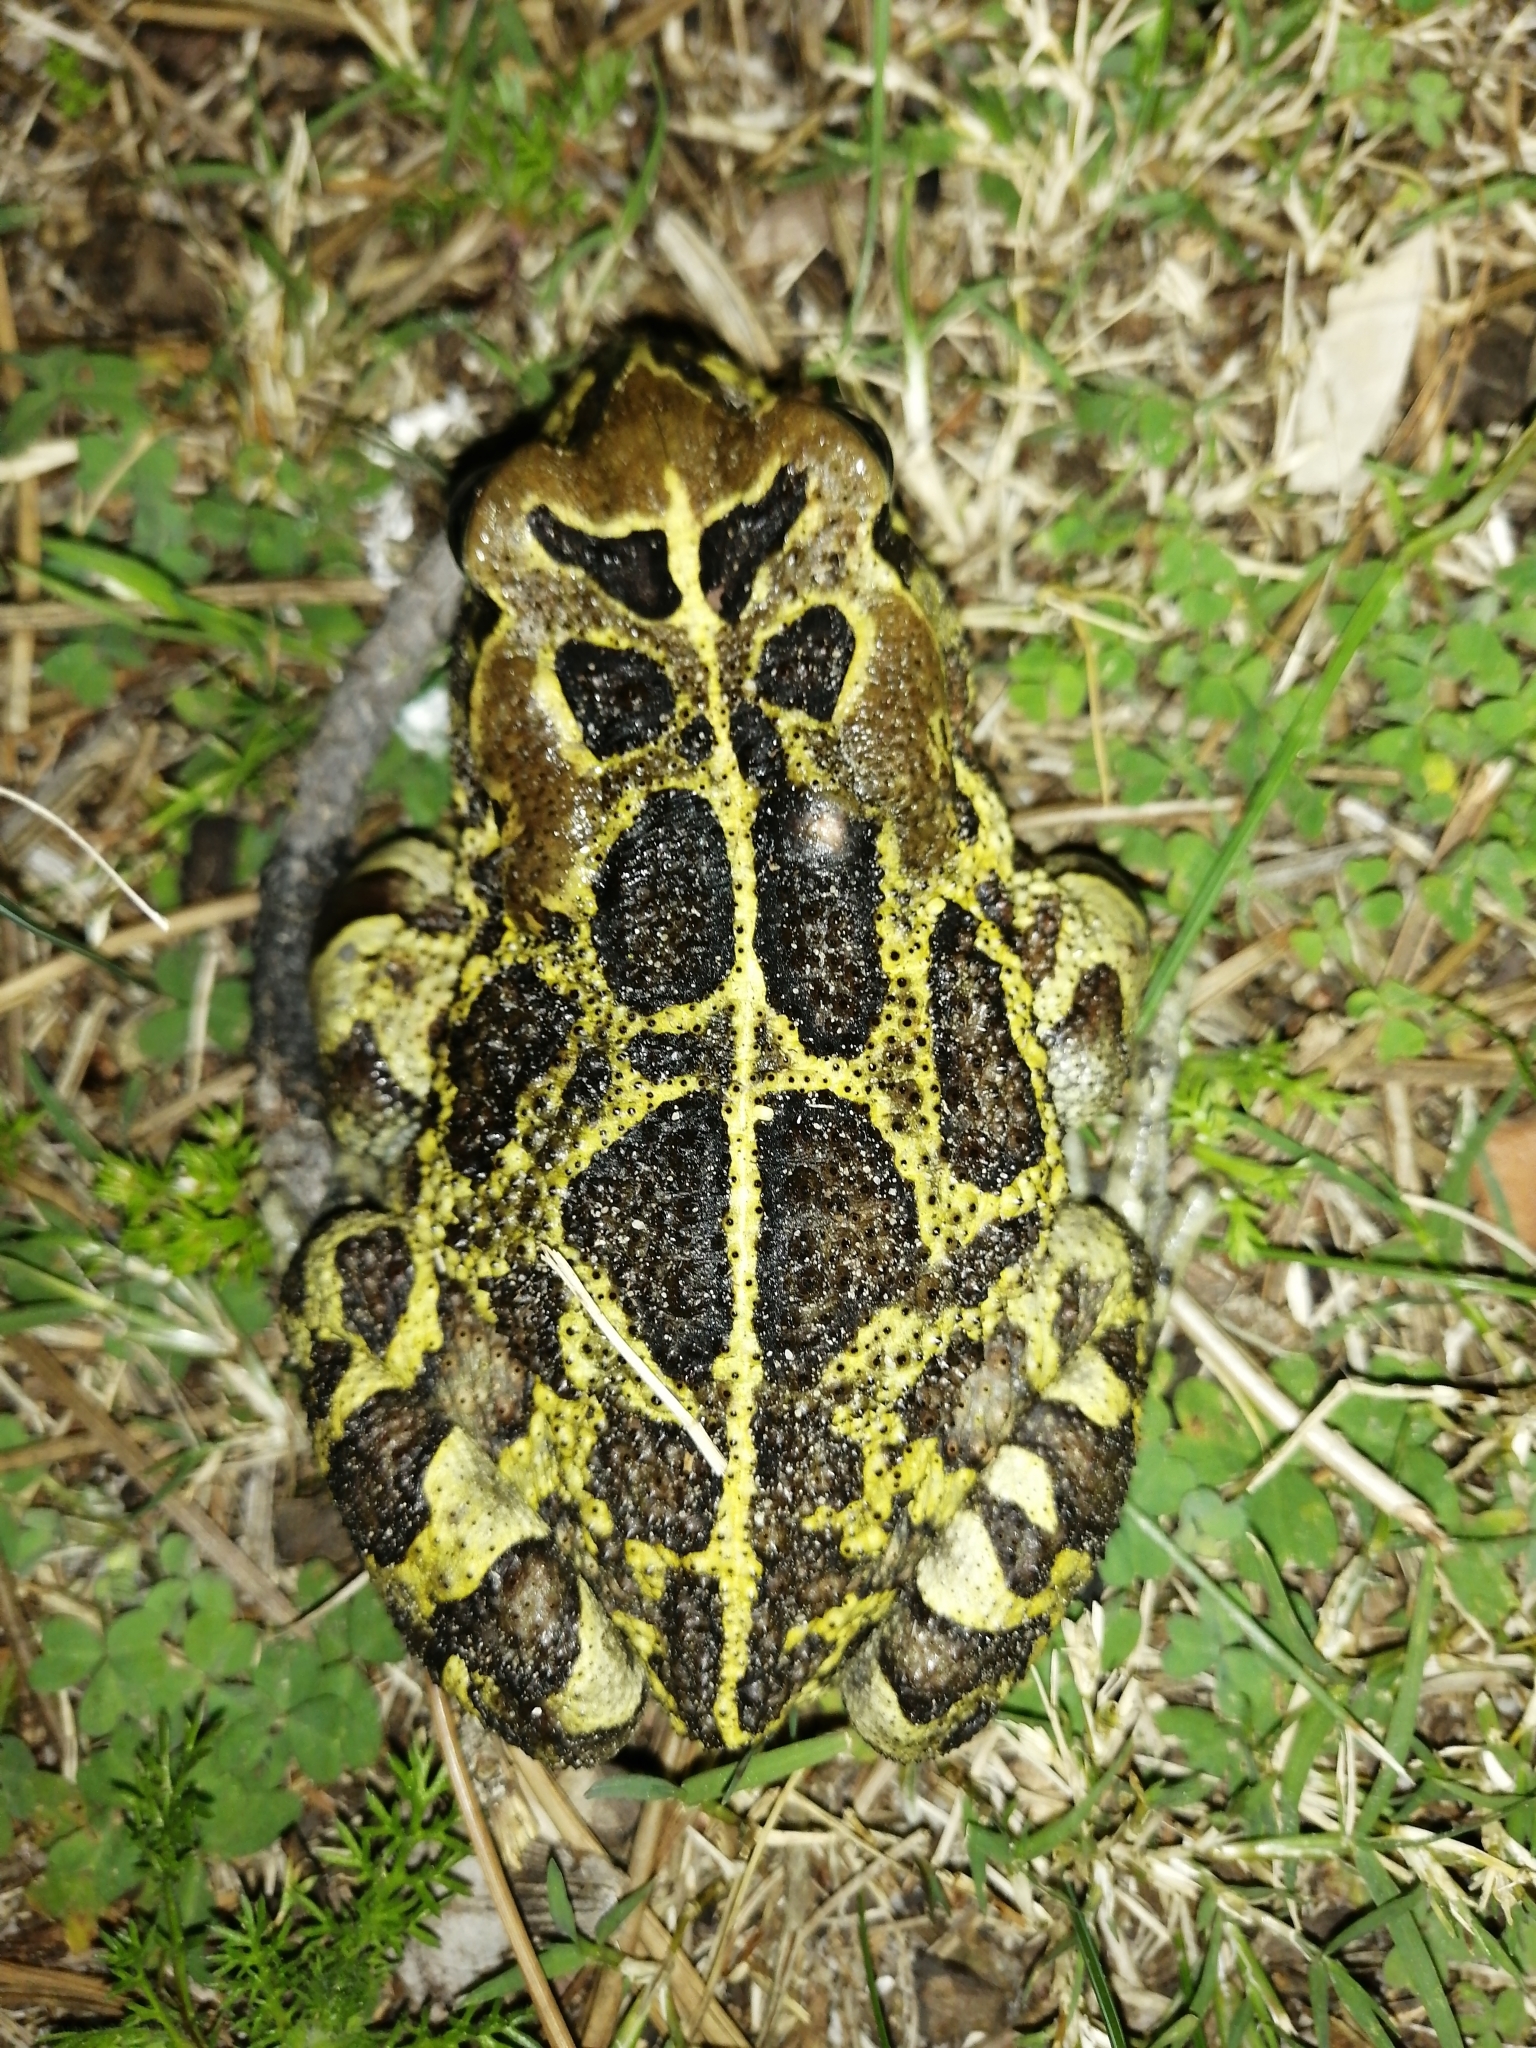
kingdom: Animalia
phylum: Chordata
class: Amphibia
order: Anura
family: Bufonidae
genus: Sclerophrys
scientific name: Sclerophrys pantherina
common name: Panther toad
